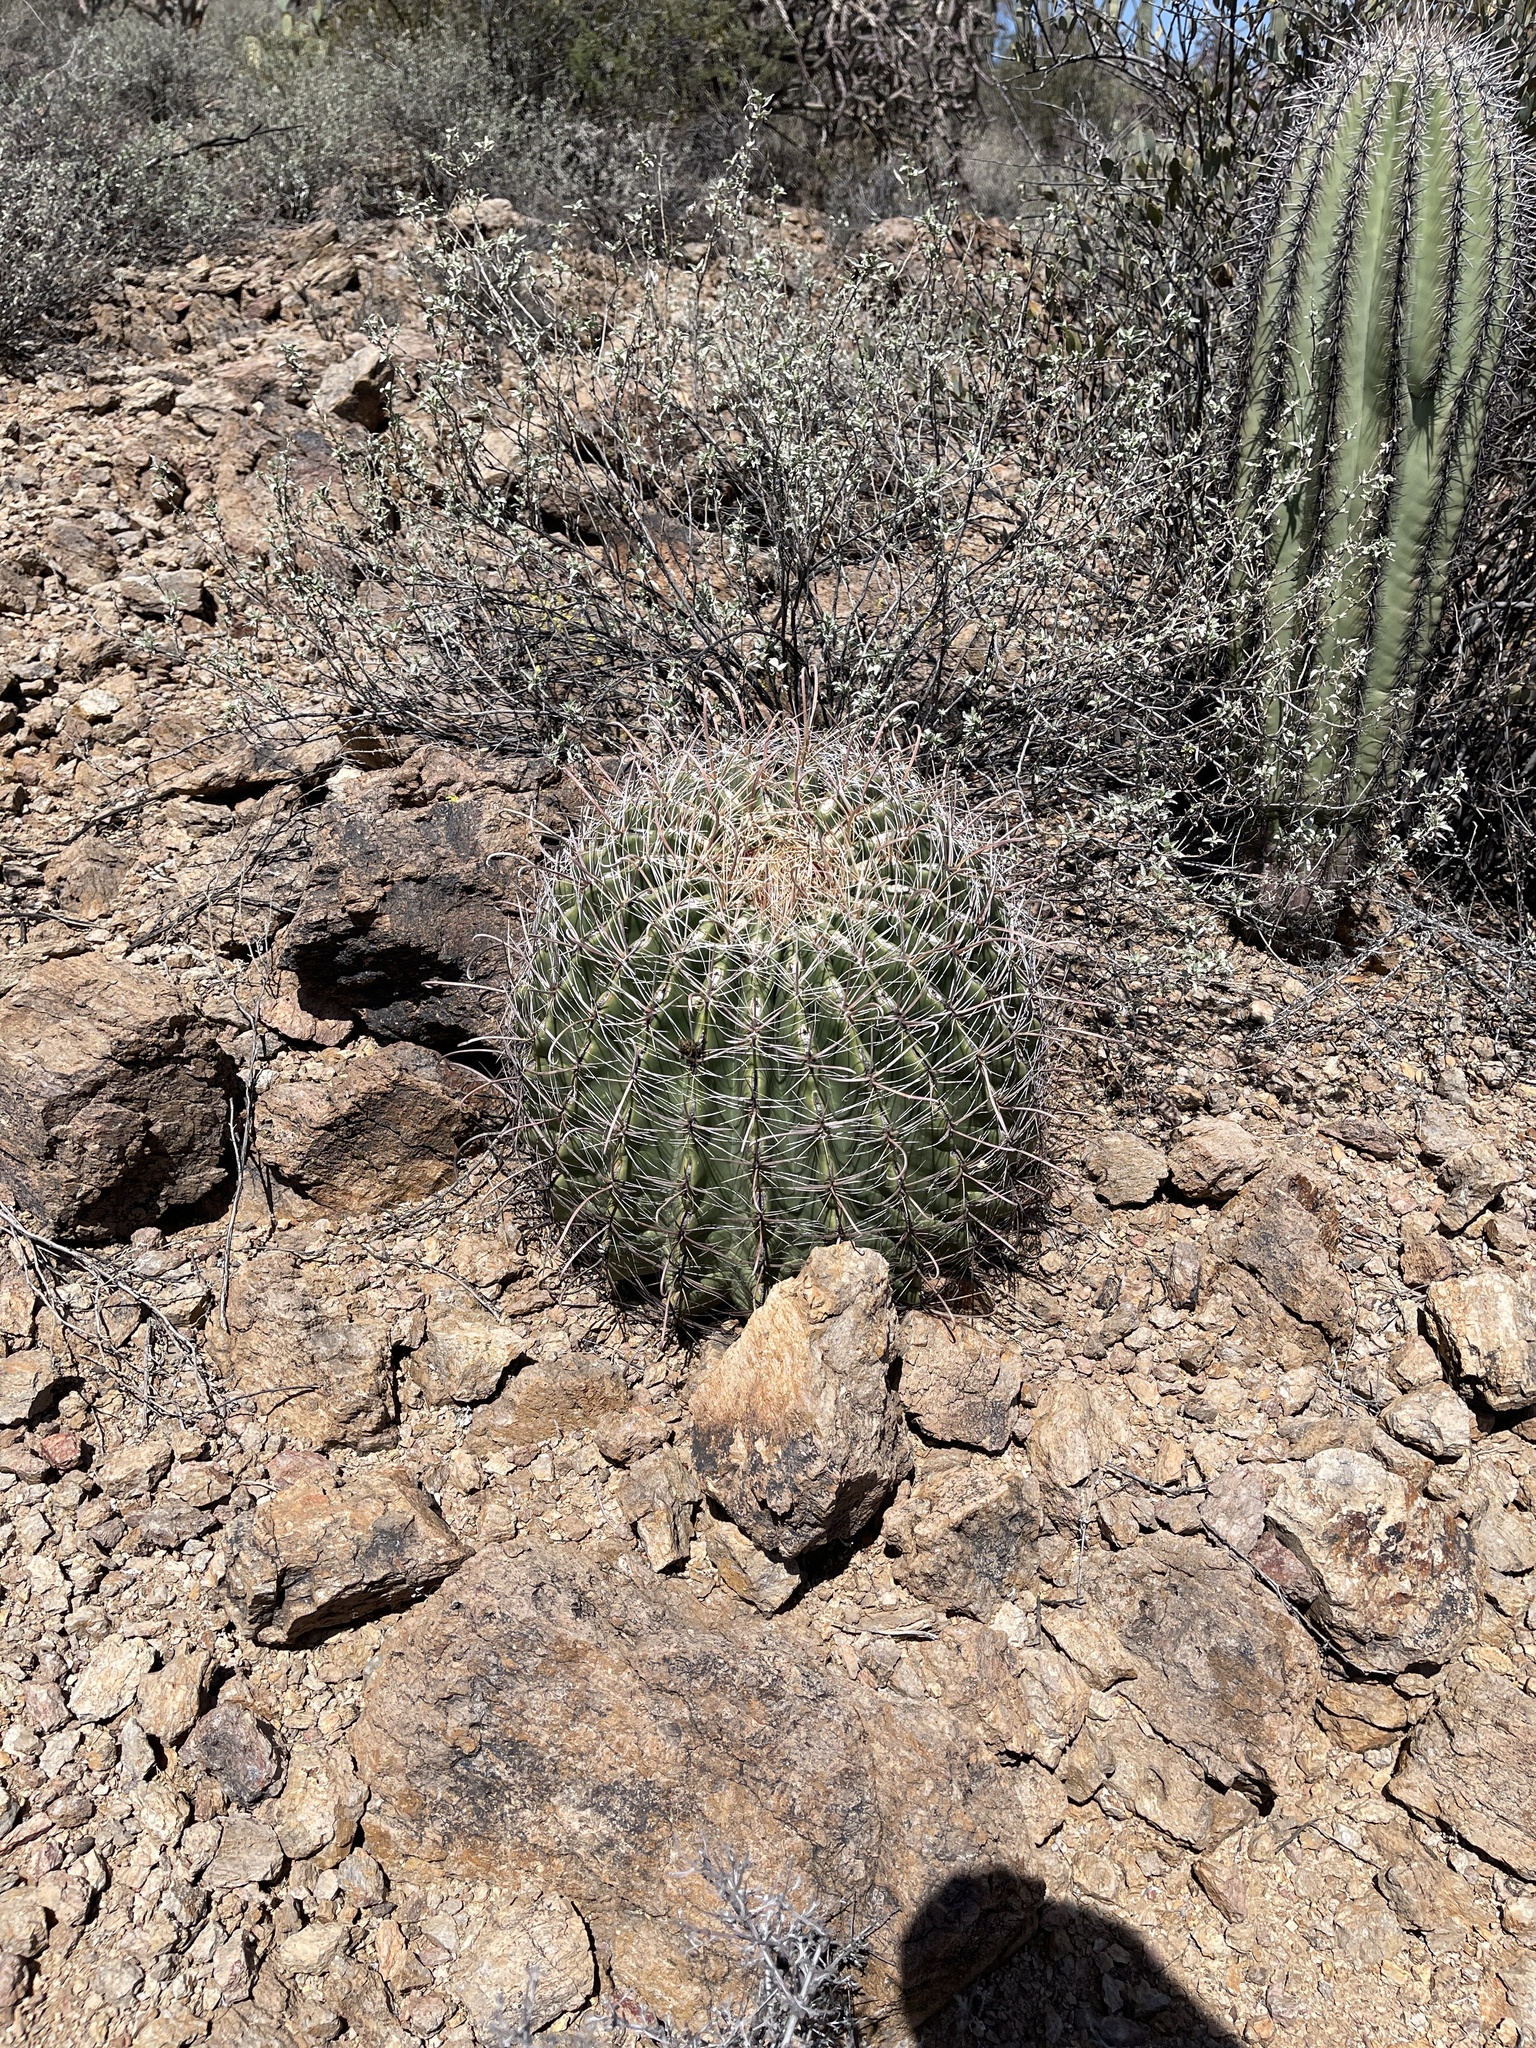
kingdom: Plantae
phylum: Tracheophyta
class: Magnoliopsida
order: Caryophyllales
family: Cactaceae
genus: Ferocactus
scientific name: Ferocactus wislizeni
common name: Candy barrel cactus
